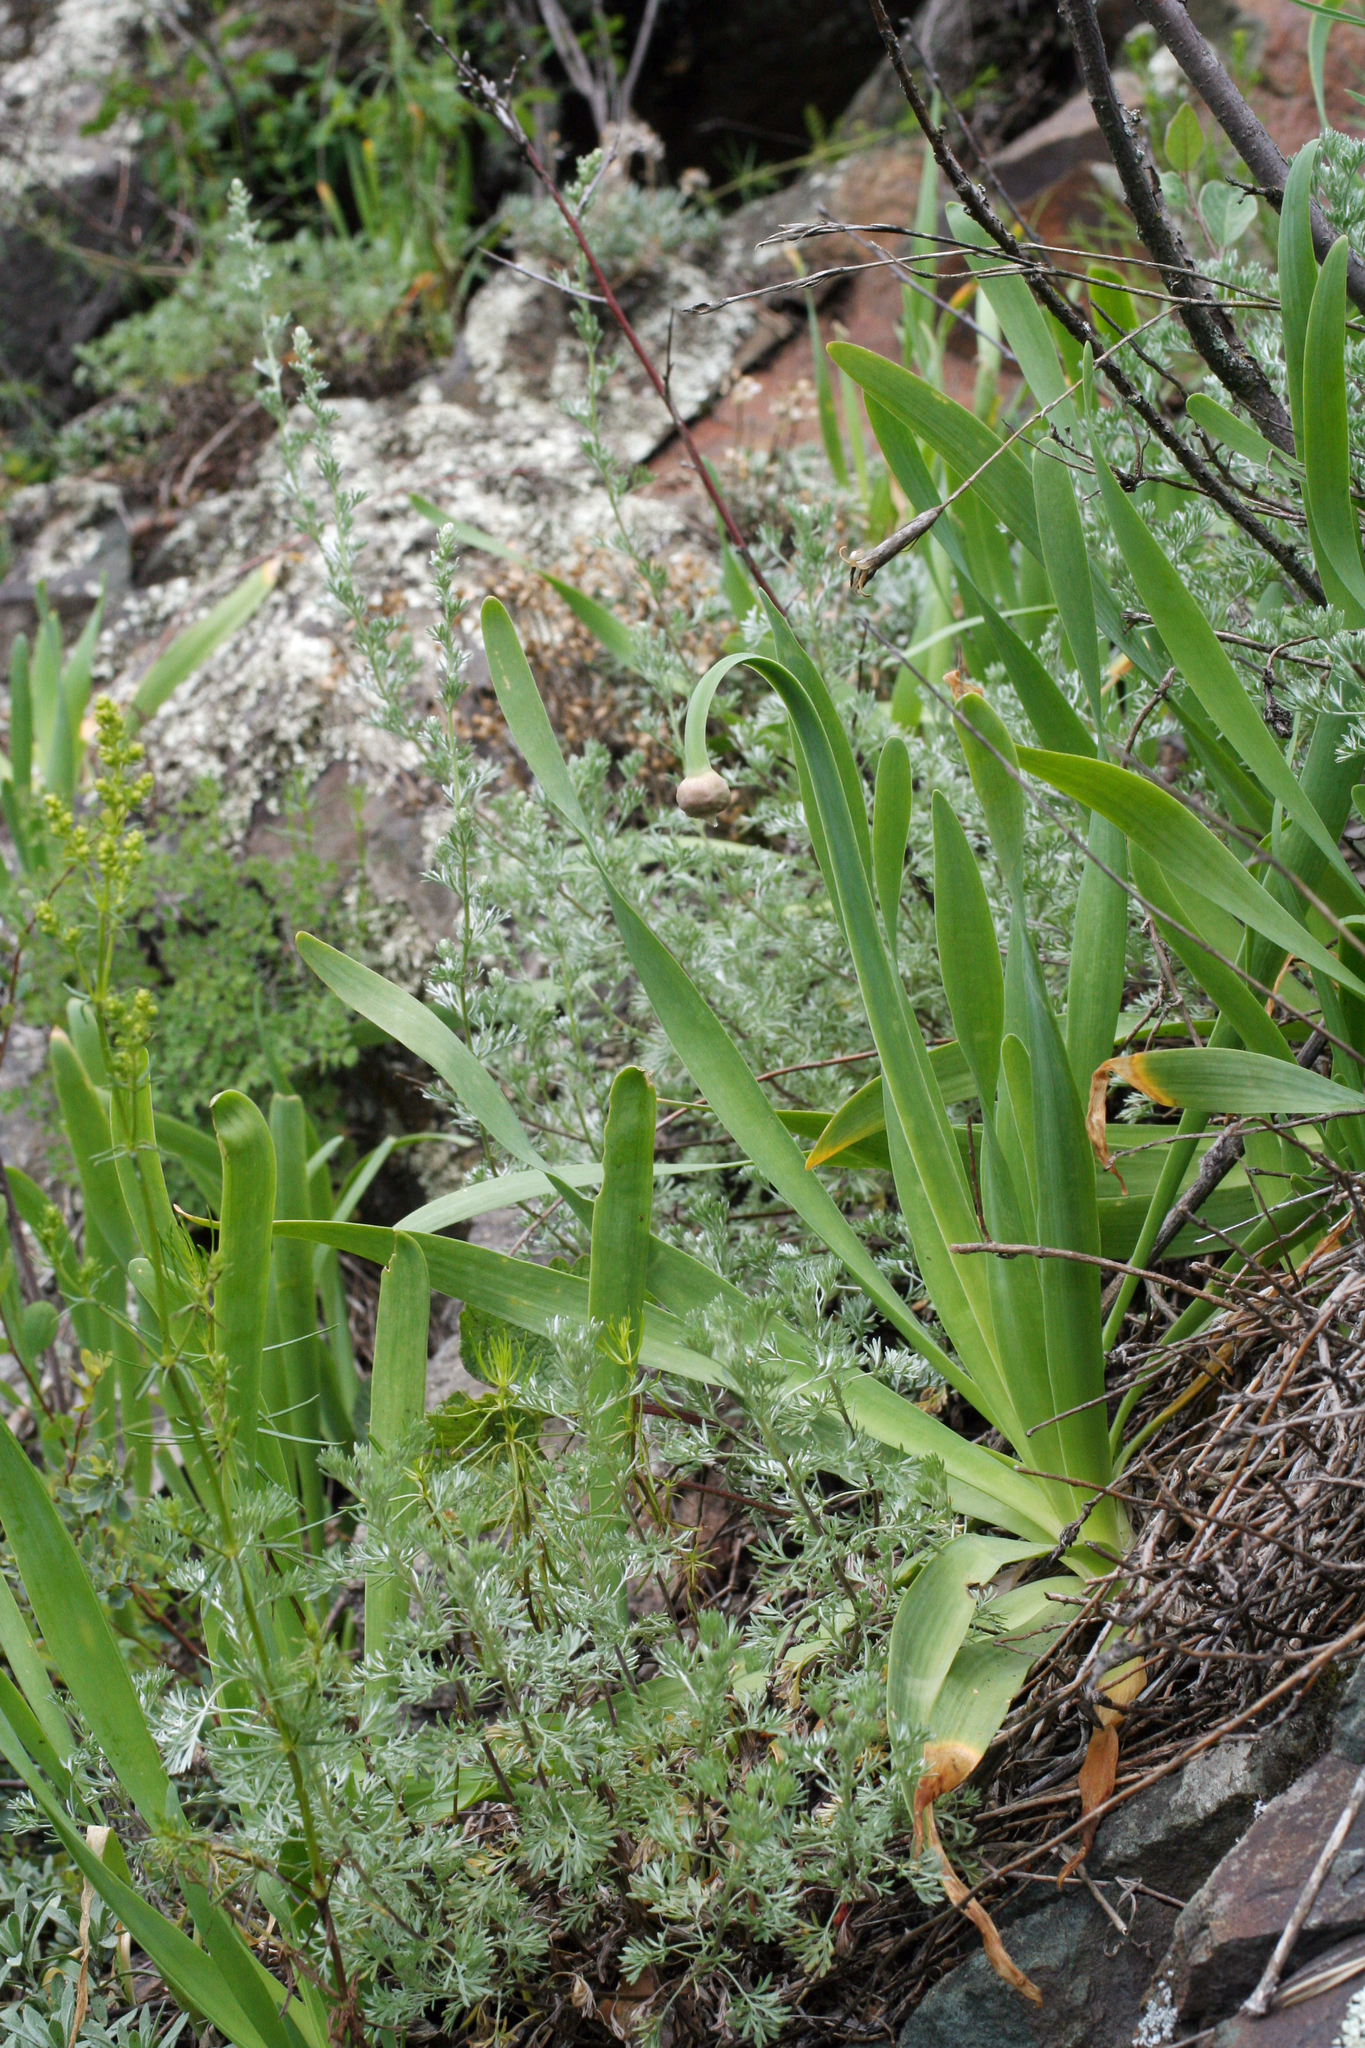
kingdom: Plantae
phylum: Tracheophyta
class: Liliopsida
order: Asparagales
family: Amaryllidaceae
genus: Allium
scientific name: Allium nutans
